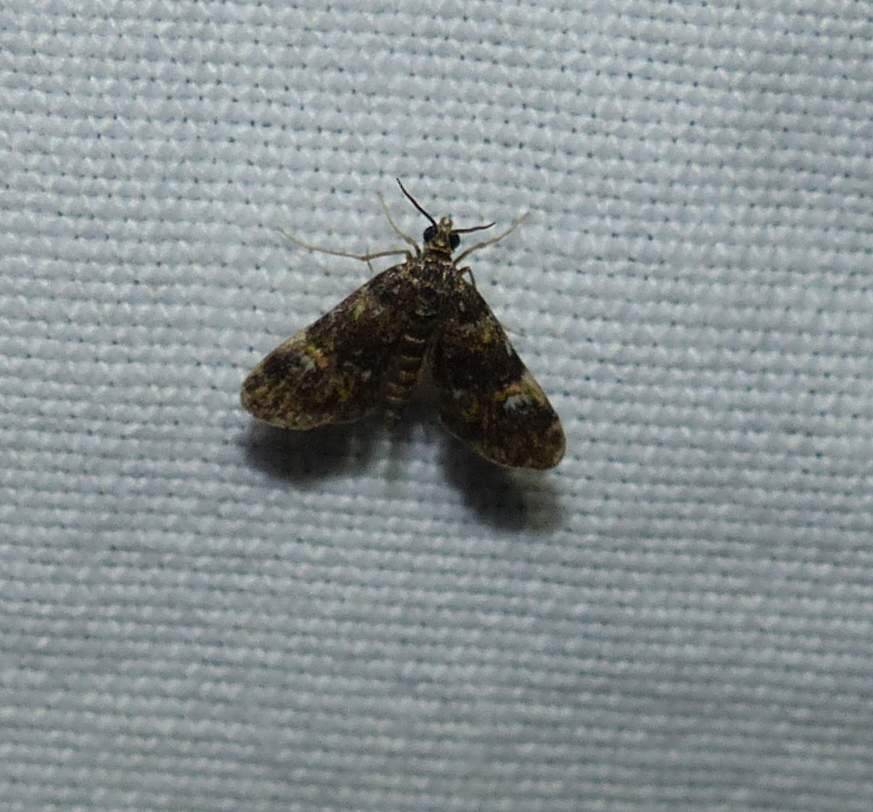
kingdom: Animalia
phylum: Arthropoda
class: Insecta
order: Lepidoptera
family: Crambidae
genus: Elophila
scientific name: Elophila obliteralis
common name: Waterlily leafcutter moth
